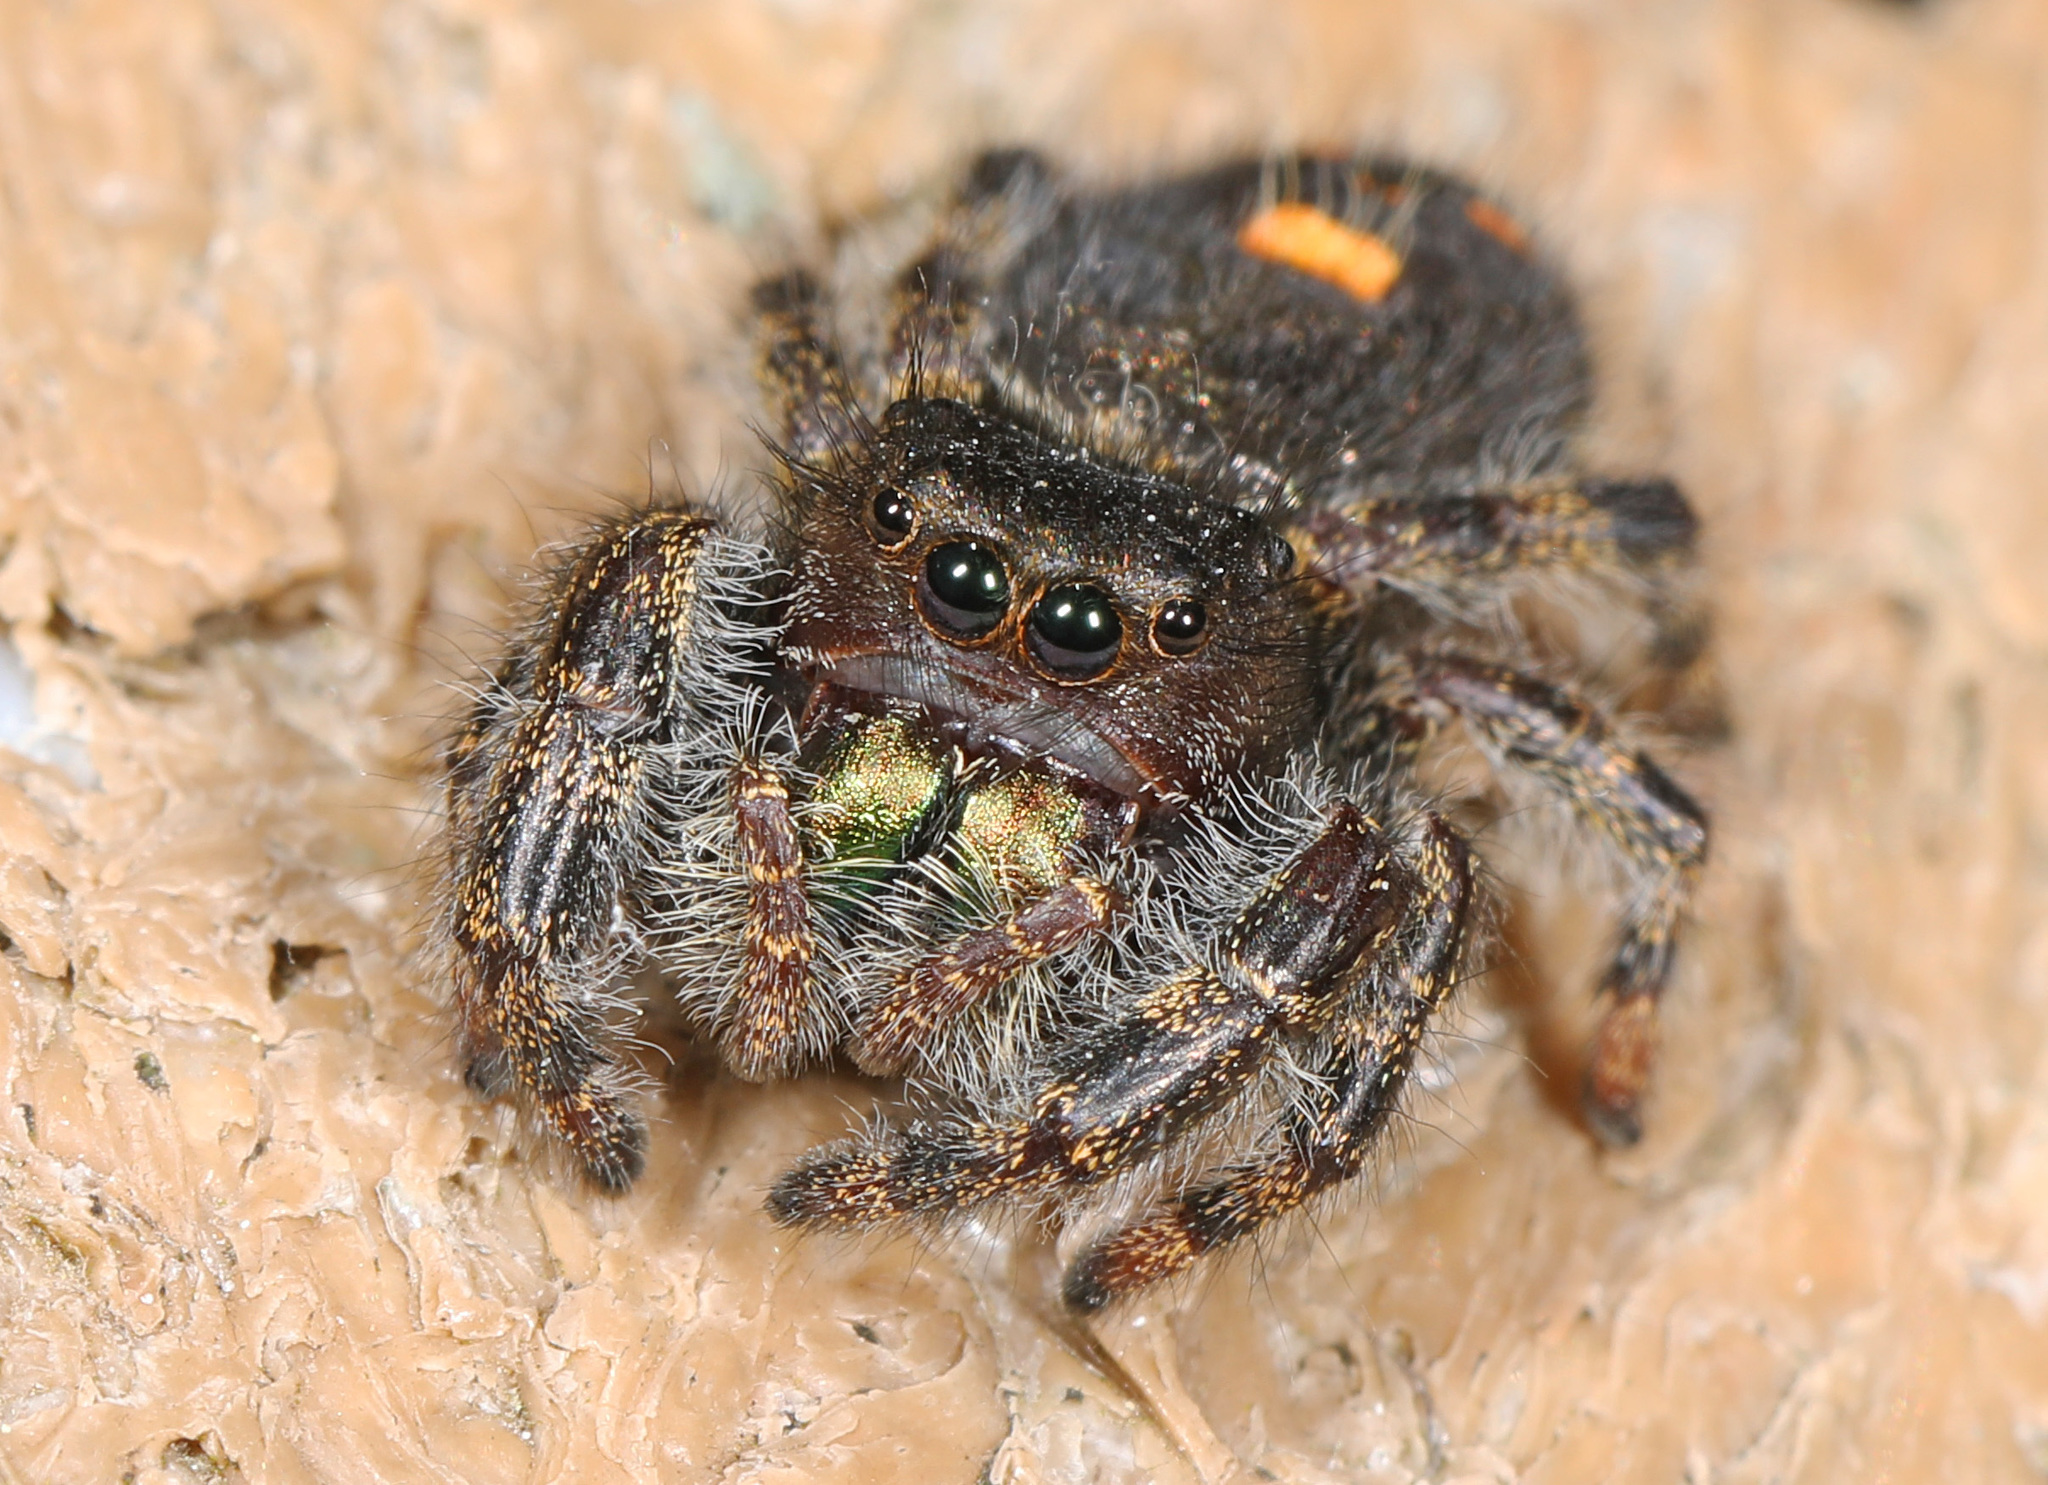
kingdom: Animalia
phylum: Arthropoda
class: Arachnida
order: Araneae
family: Salticidae
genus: Phidippus
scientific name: Phidippus audax
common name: Bold jumper
